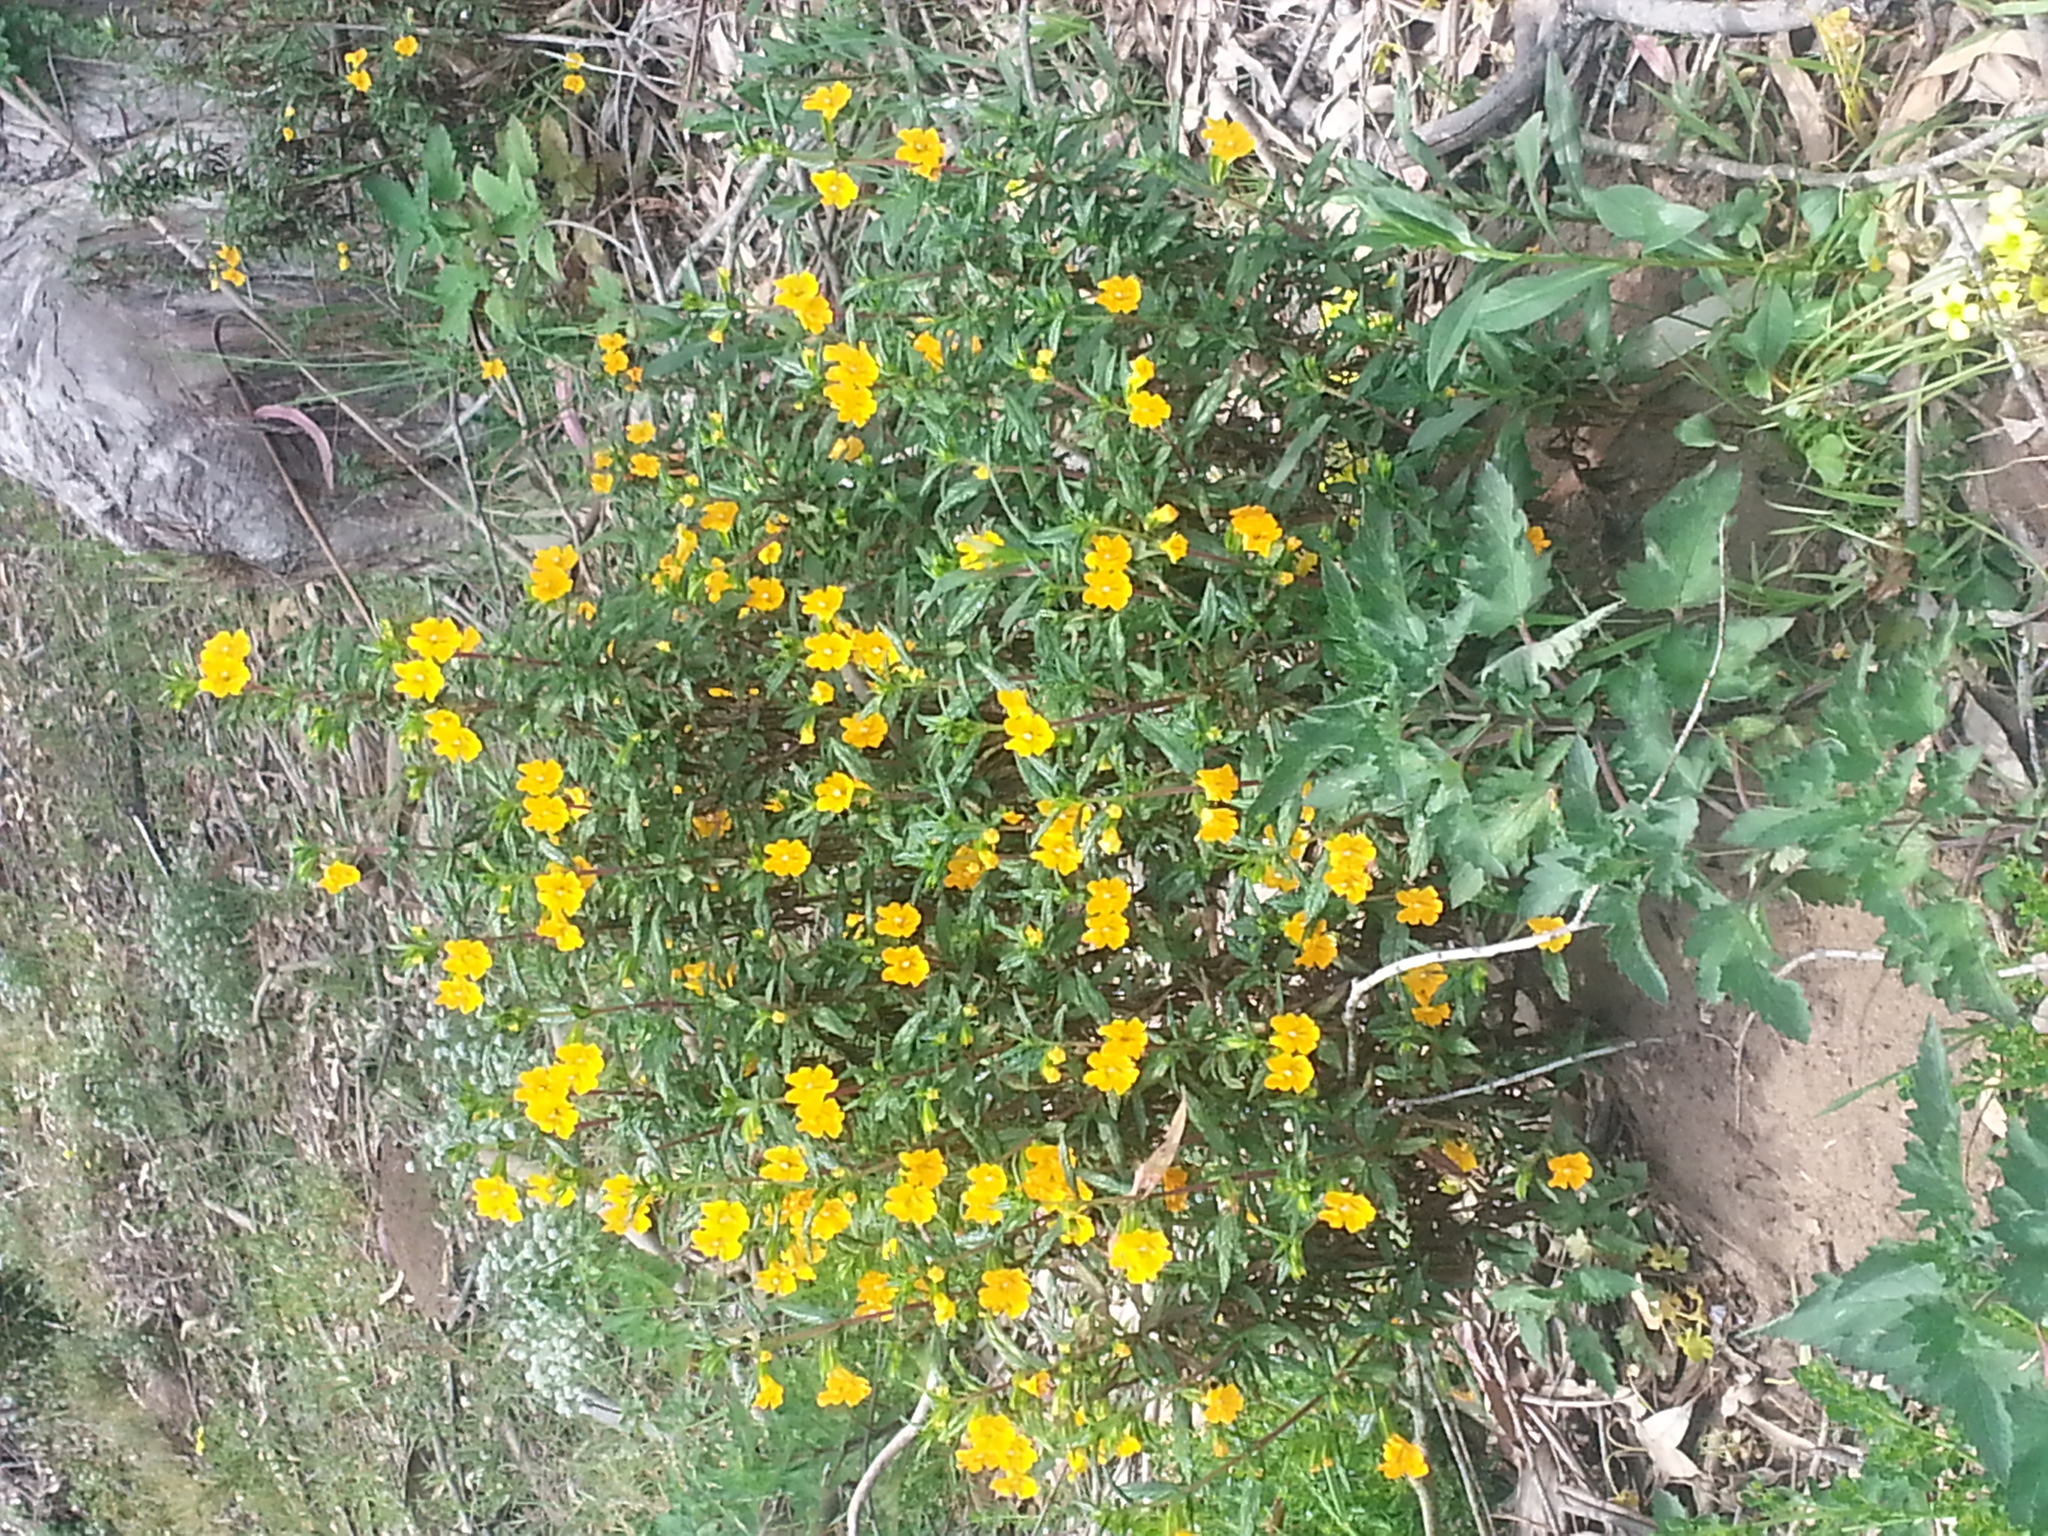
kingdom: Plantae
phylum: Tracheophyta
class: Magnoliopsida
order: Lamiales
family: Phrymaceae
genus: Diplacus
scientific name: Diplacus aurantiacus
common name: Bush monkey-flower
